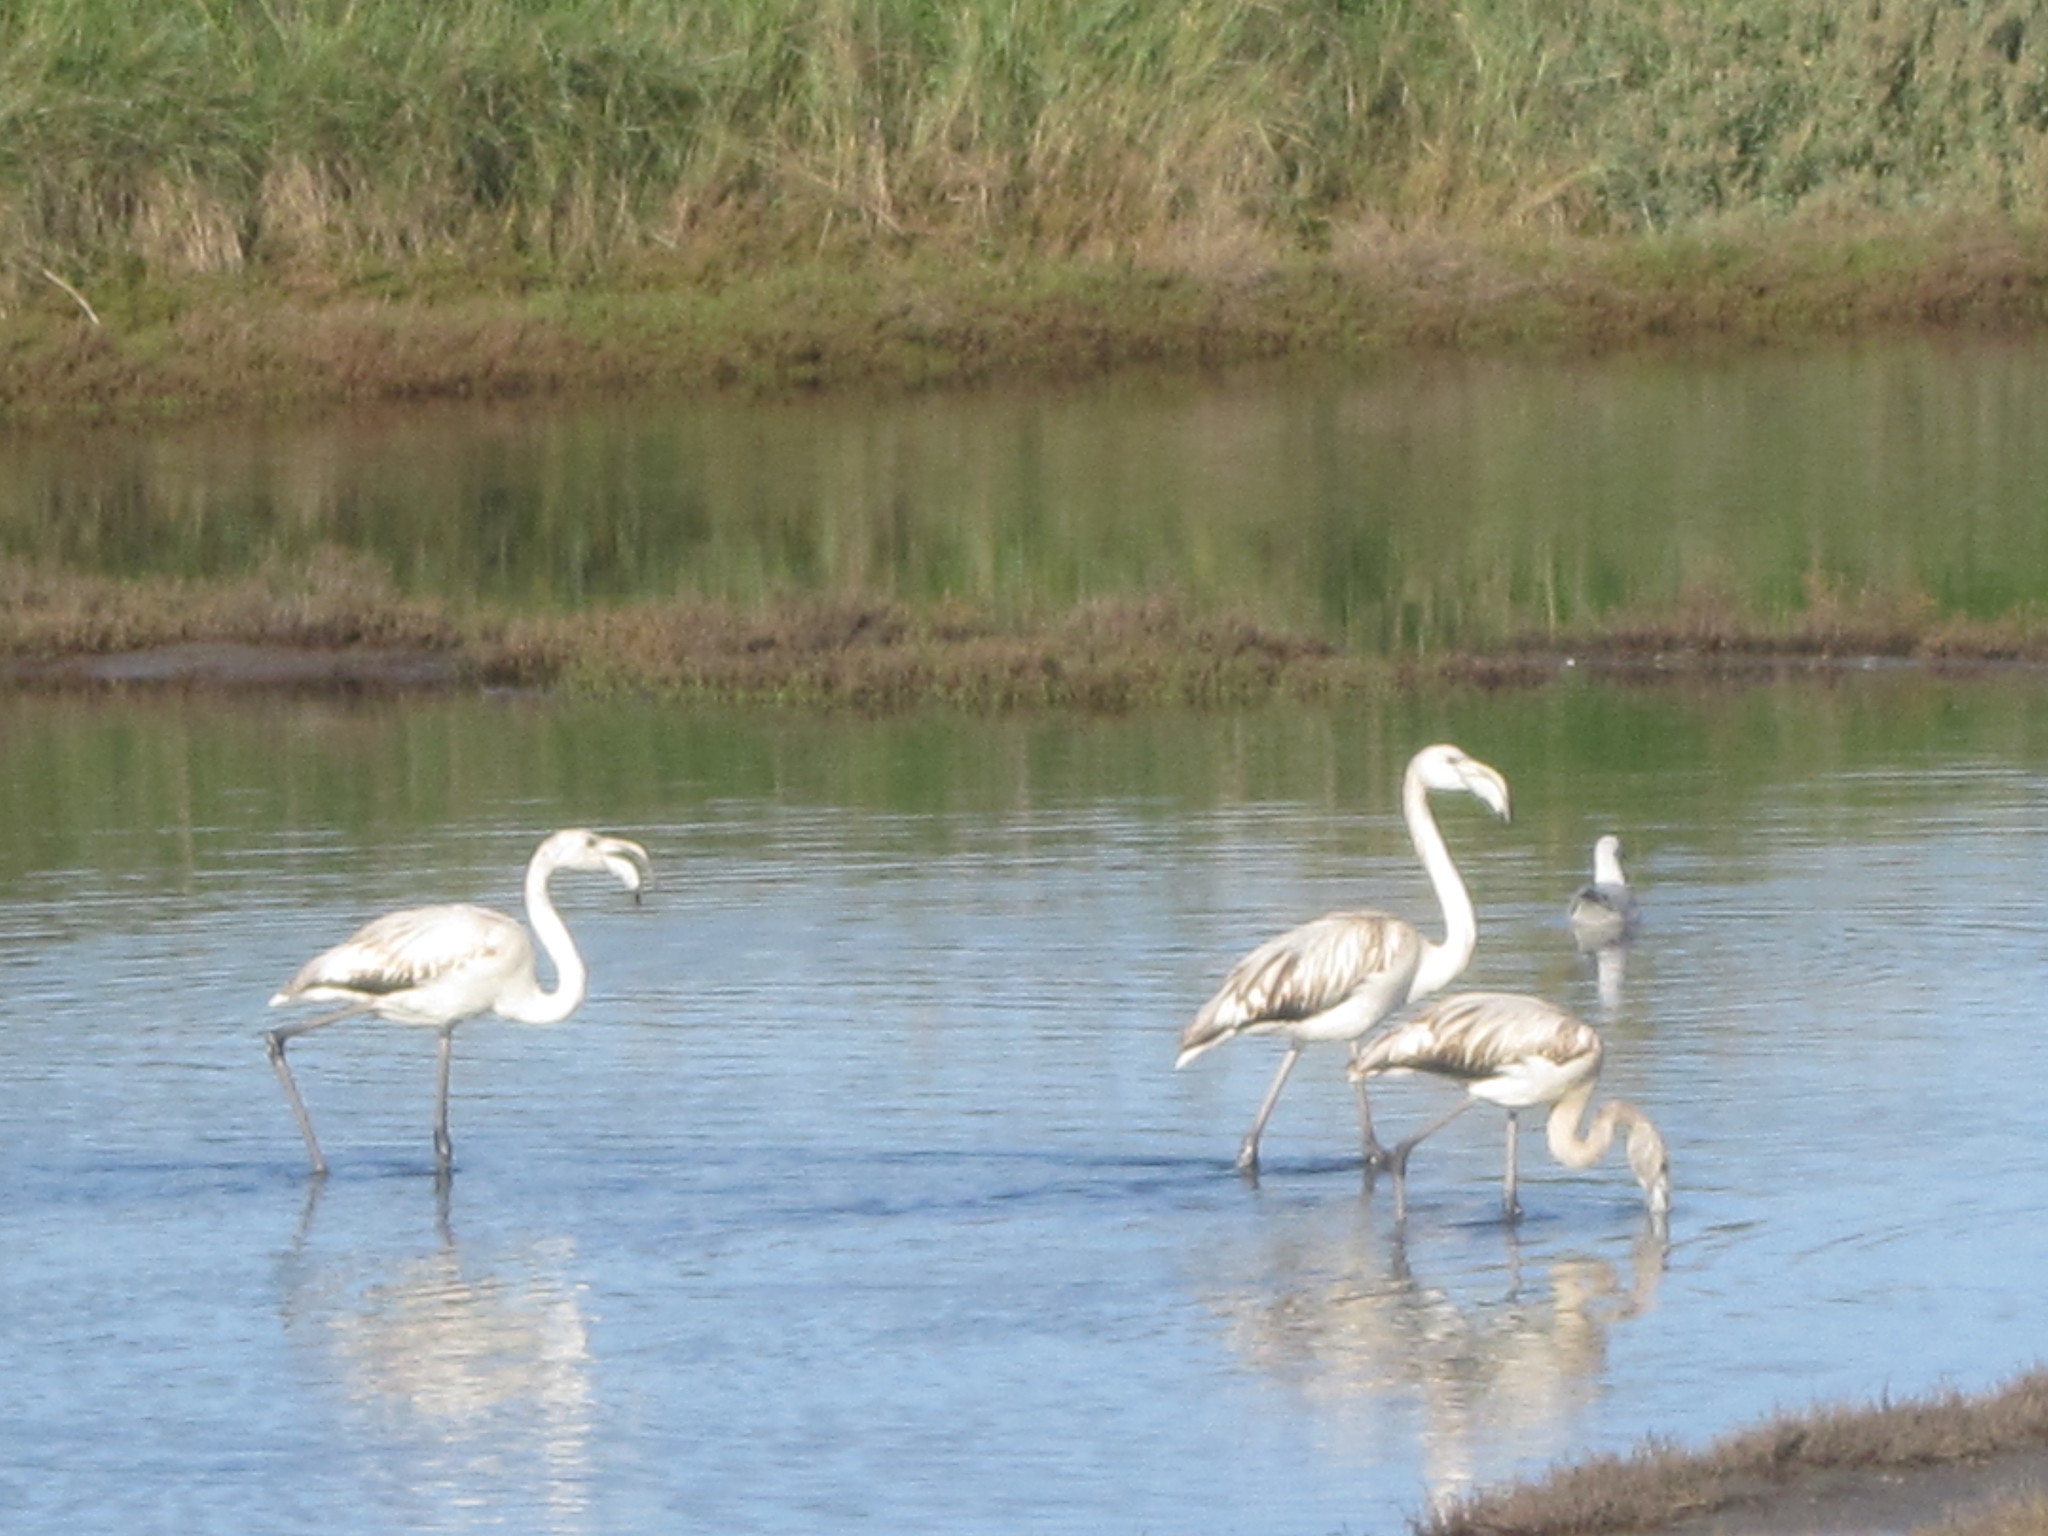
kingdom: Animalia
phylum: Chordata
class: Aves
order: Phoenicopteriformes
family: Phoenicopteridae
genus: Phoenicopterus
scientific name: Phoenicopterus roseus
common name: Greater flamingo
